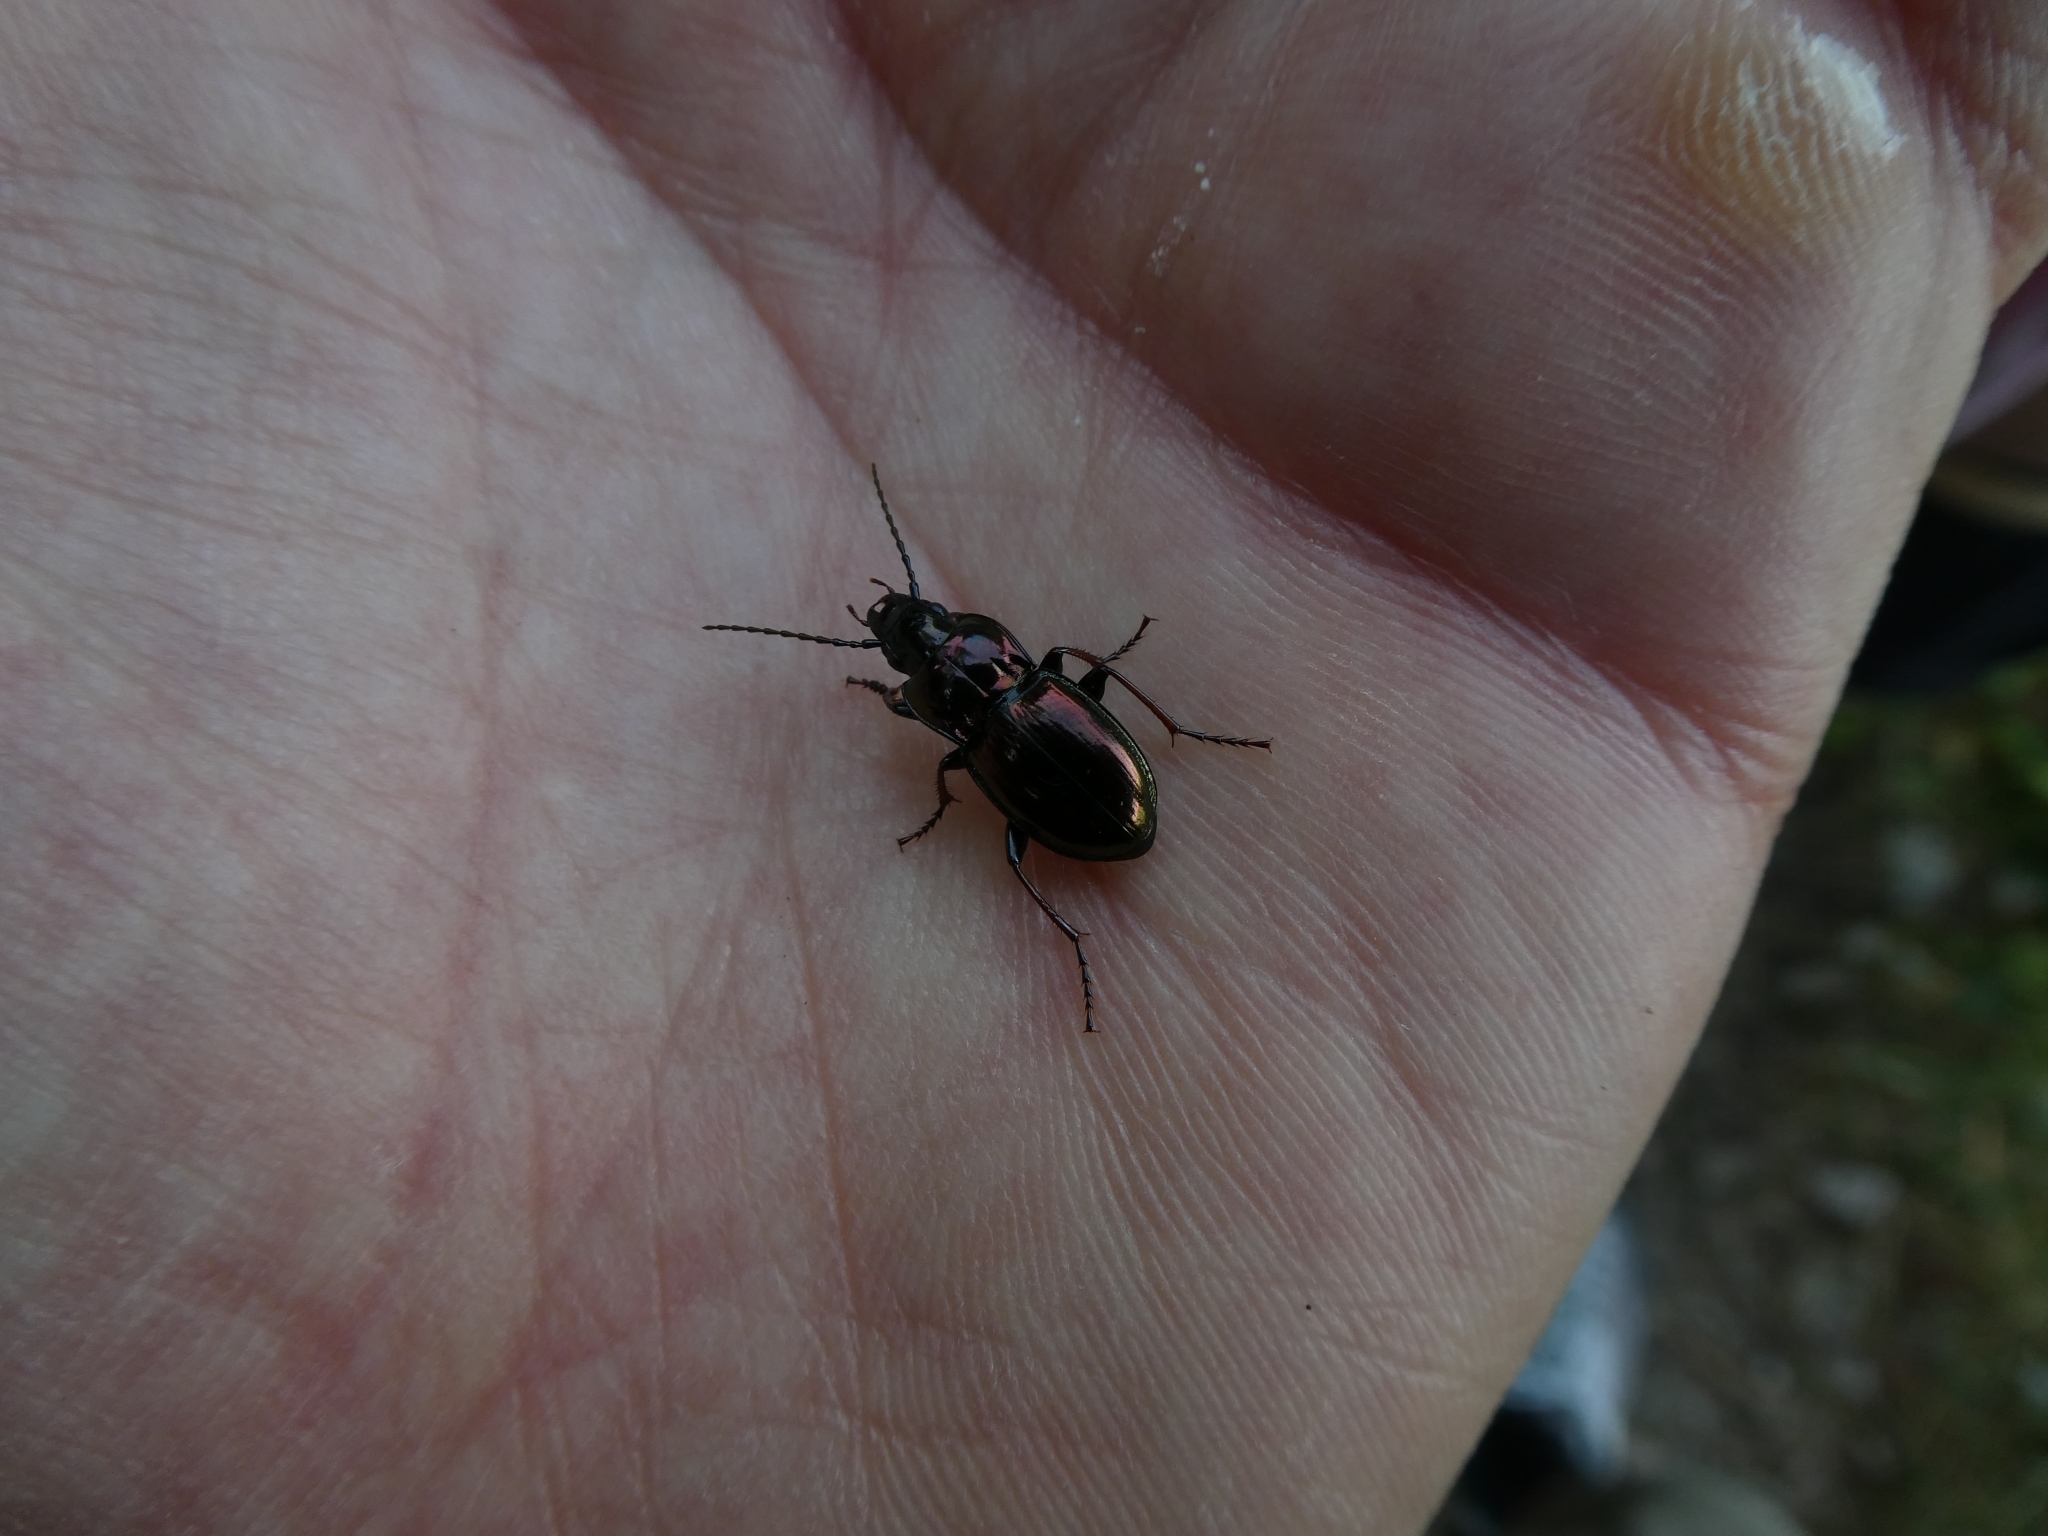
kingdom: Animalia
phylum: Arthropoda
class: Insecta
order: Coleoptera
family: Carabidae
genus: Pterostichus
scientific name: Pterostichus burmeisteri
